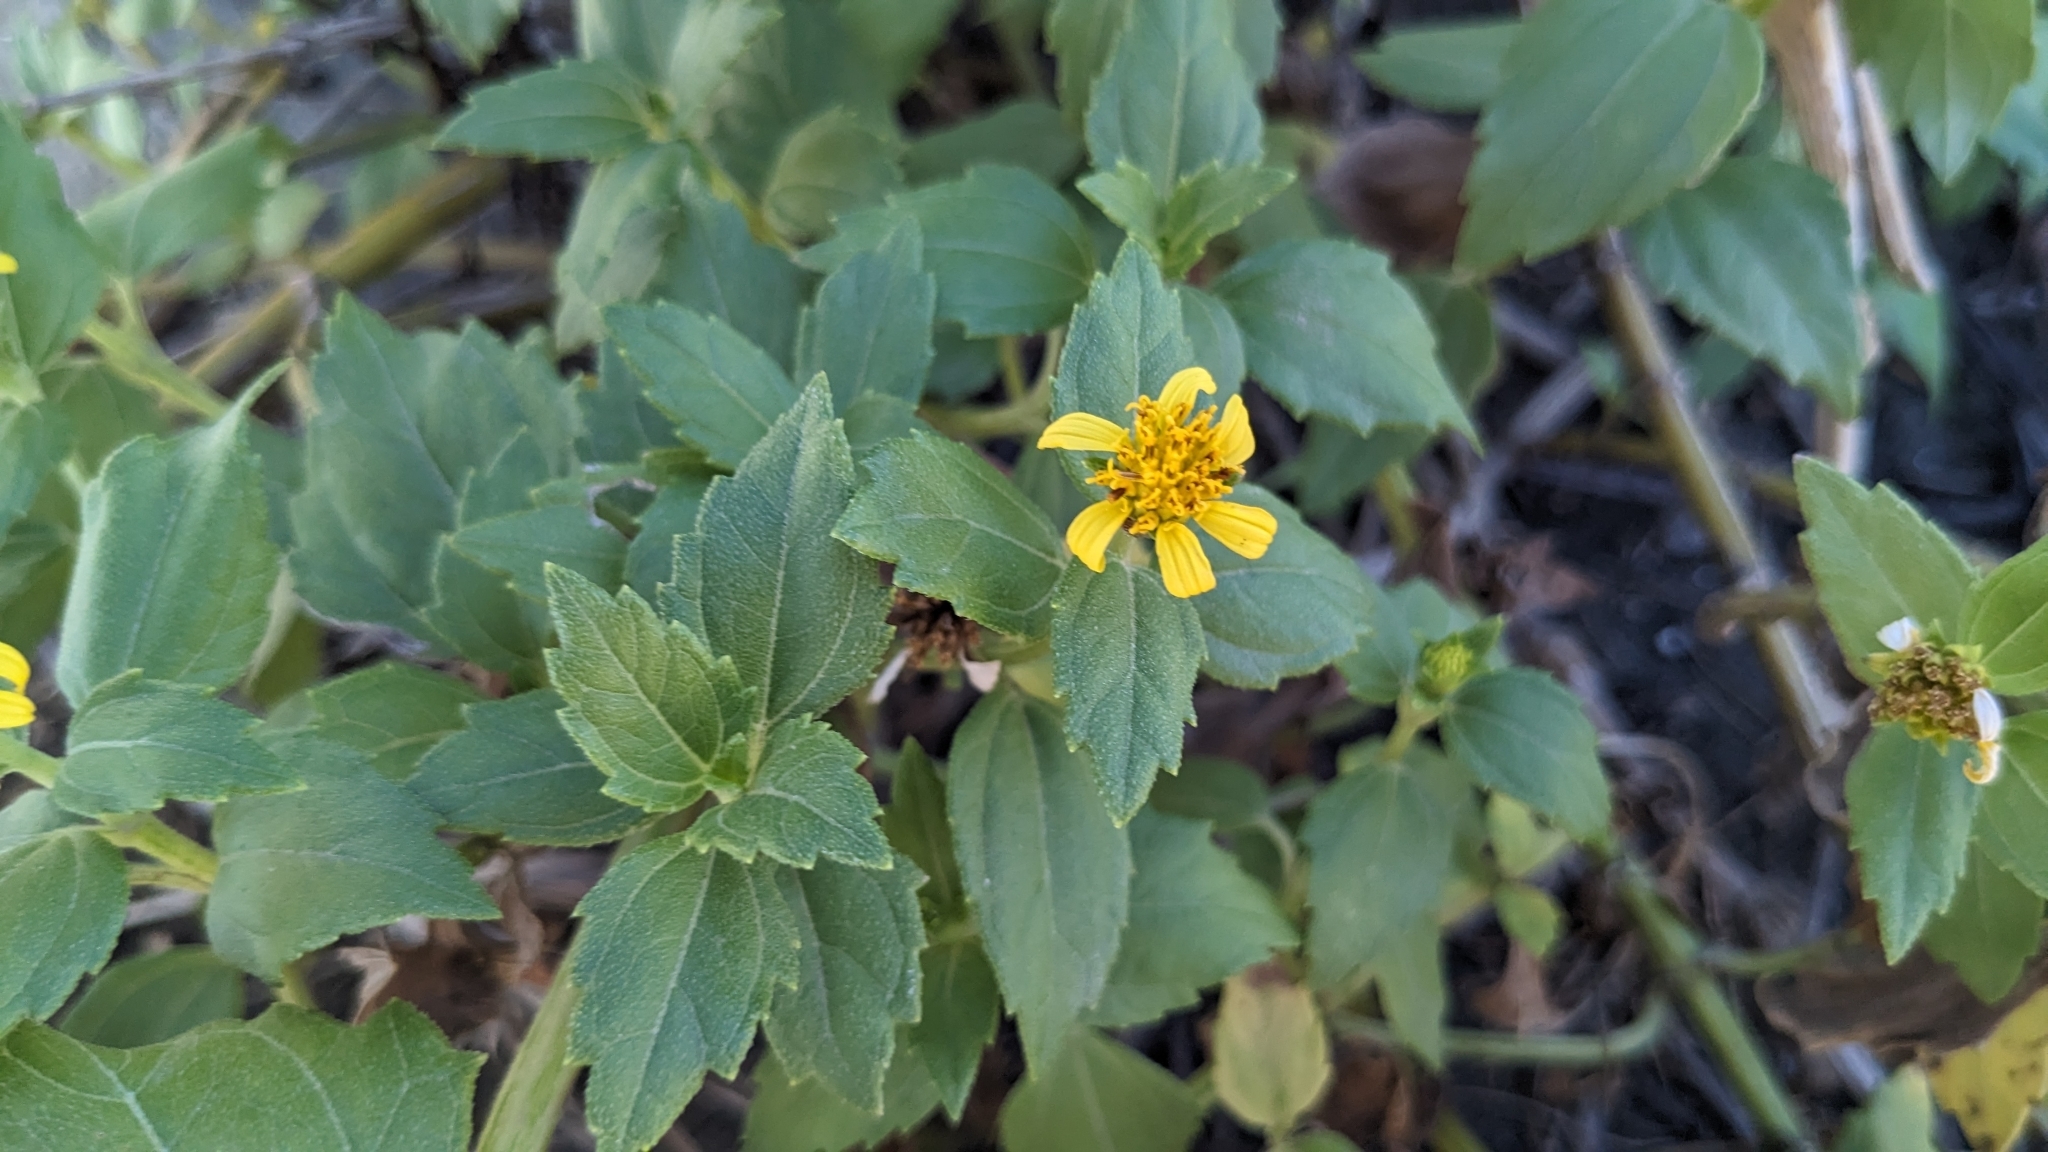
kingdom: Plantae
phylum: Tracheophyta
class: Magnoliopsida
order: Asterales
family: Asteraceae
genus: Melanthera
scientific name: Melanthera prostrata
